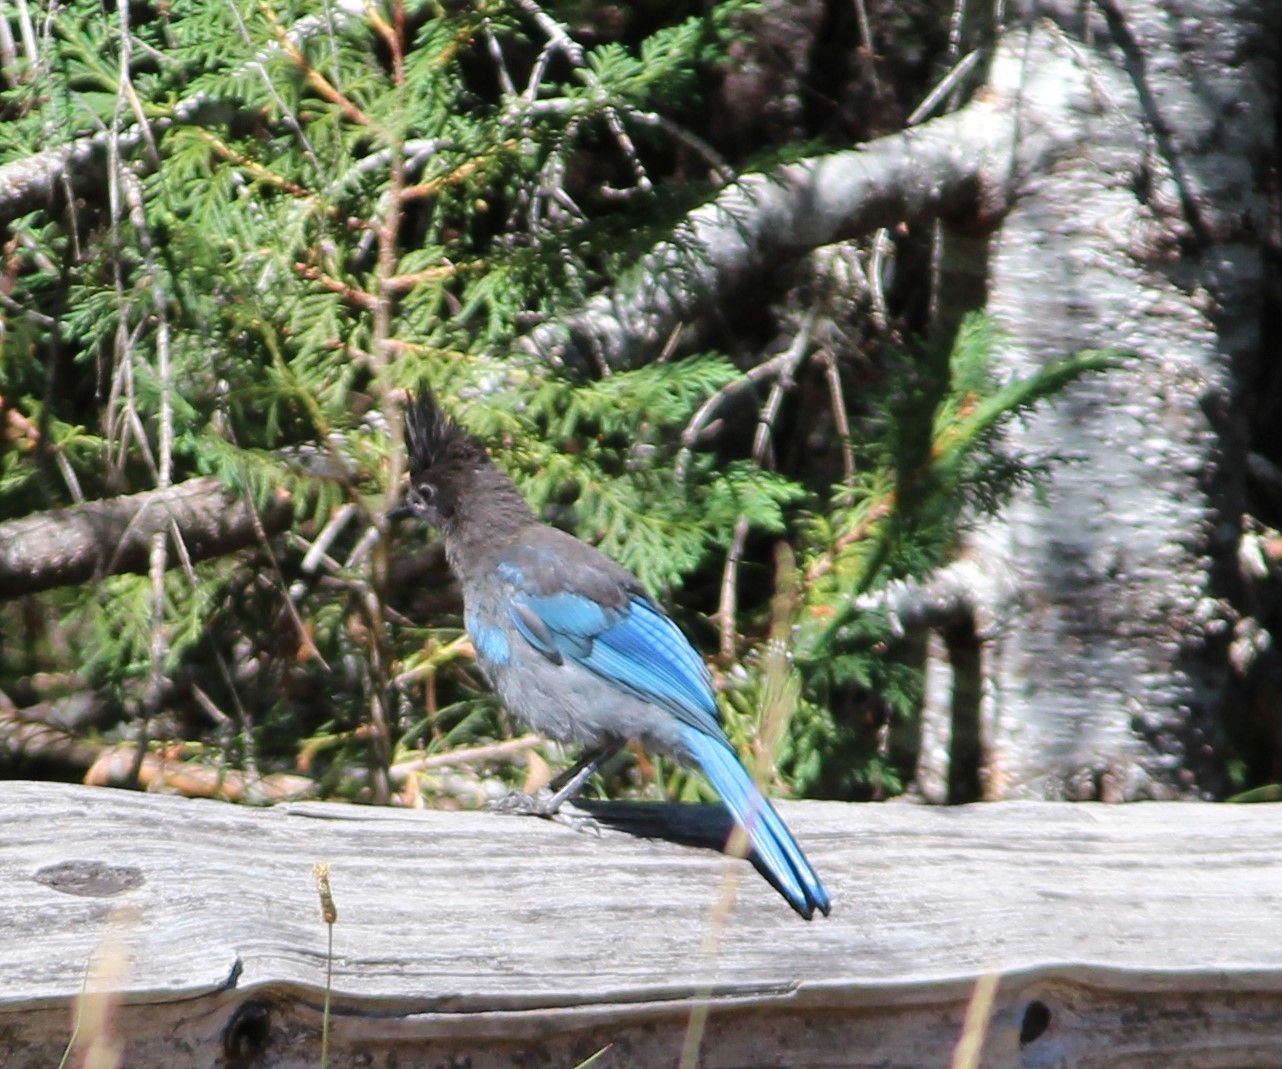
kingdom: Animalia
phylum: Chordata
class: Aves
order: Passeriformes
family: Corvidae
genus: Cyanocitta
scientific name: Cyanocitta stelleri
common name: Steller's jay
